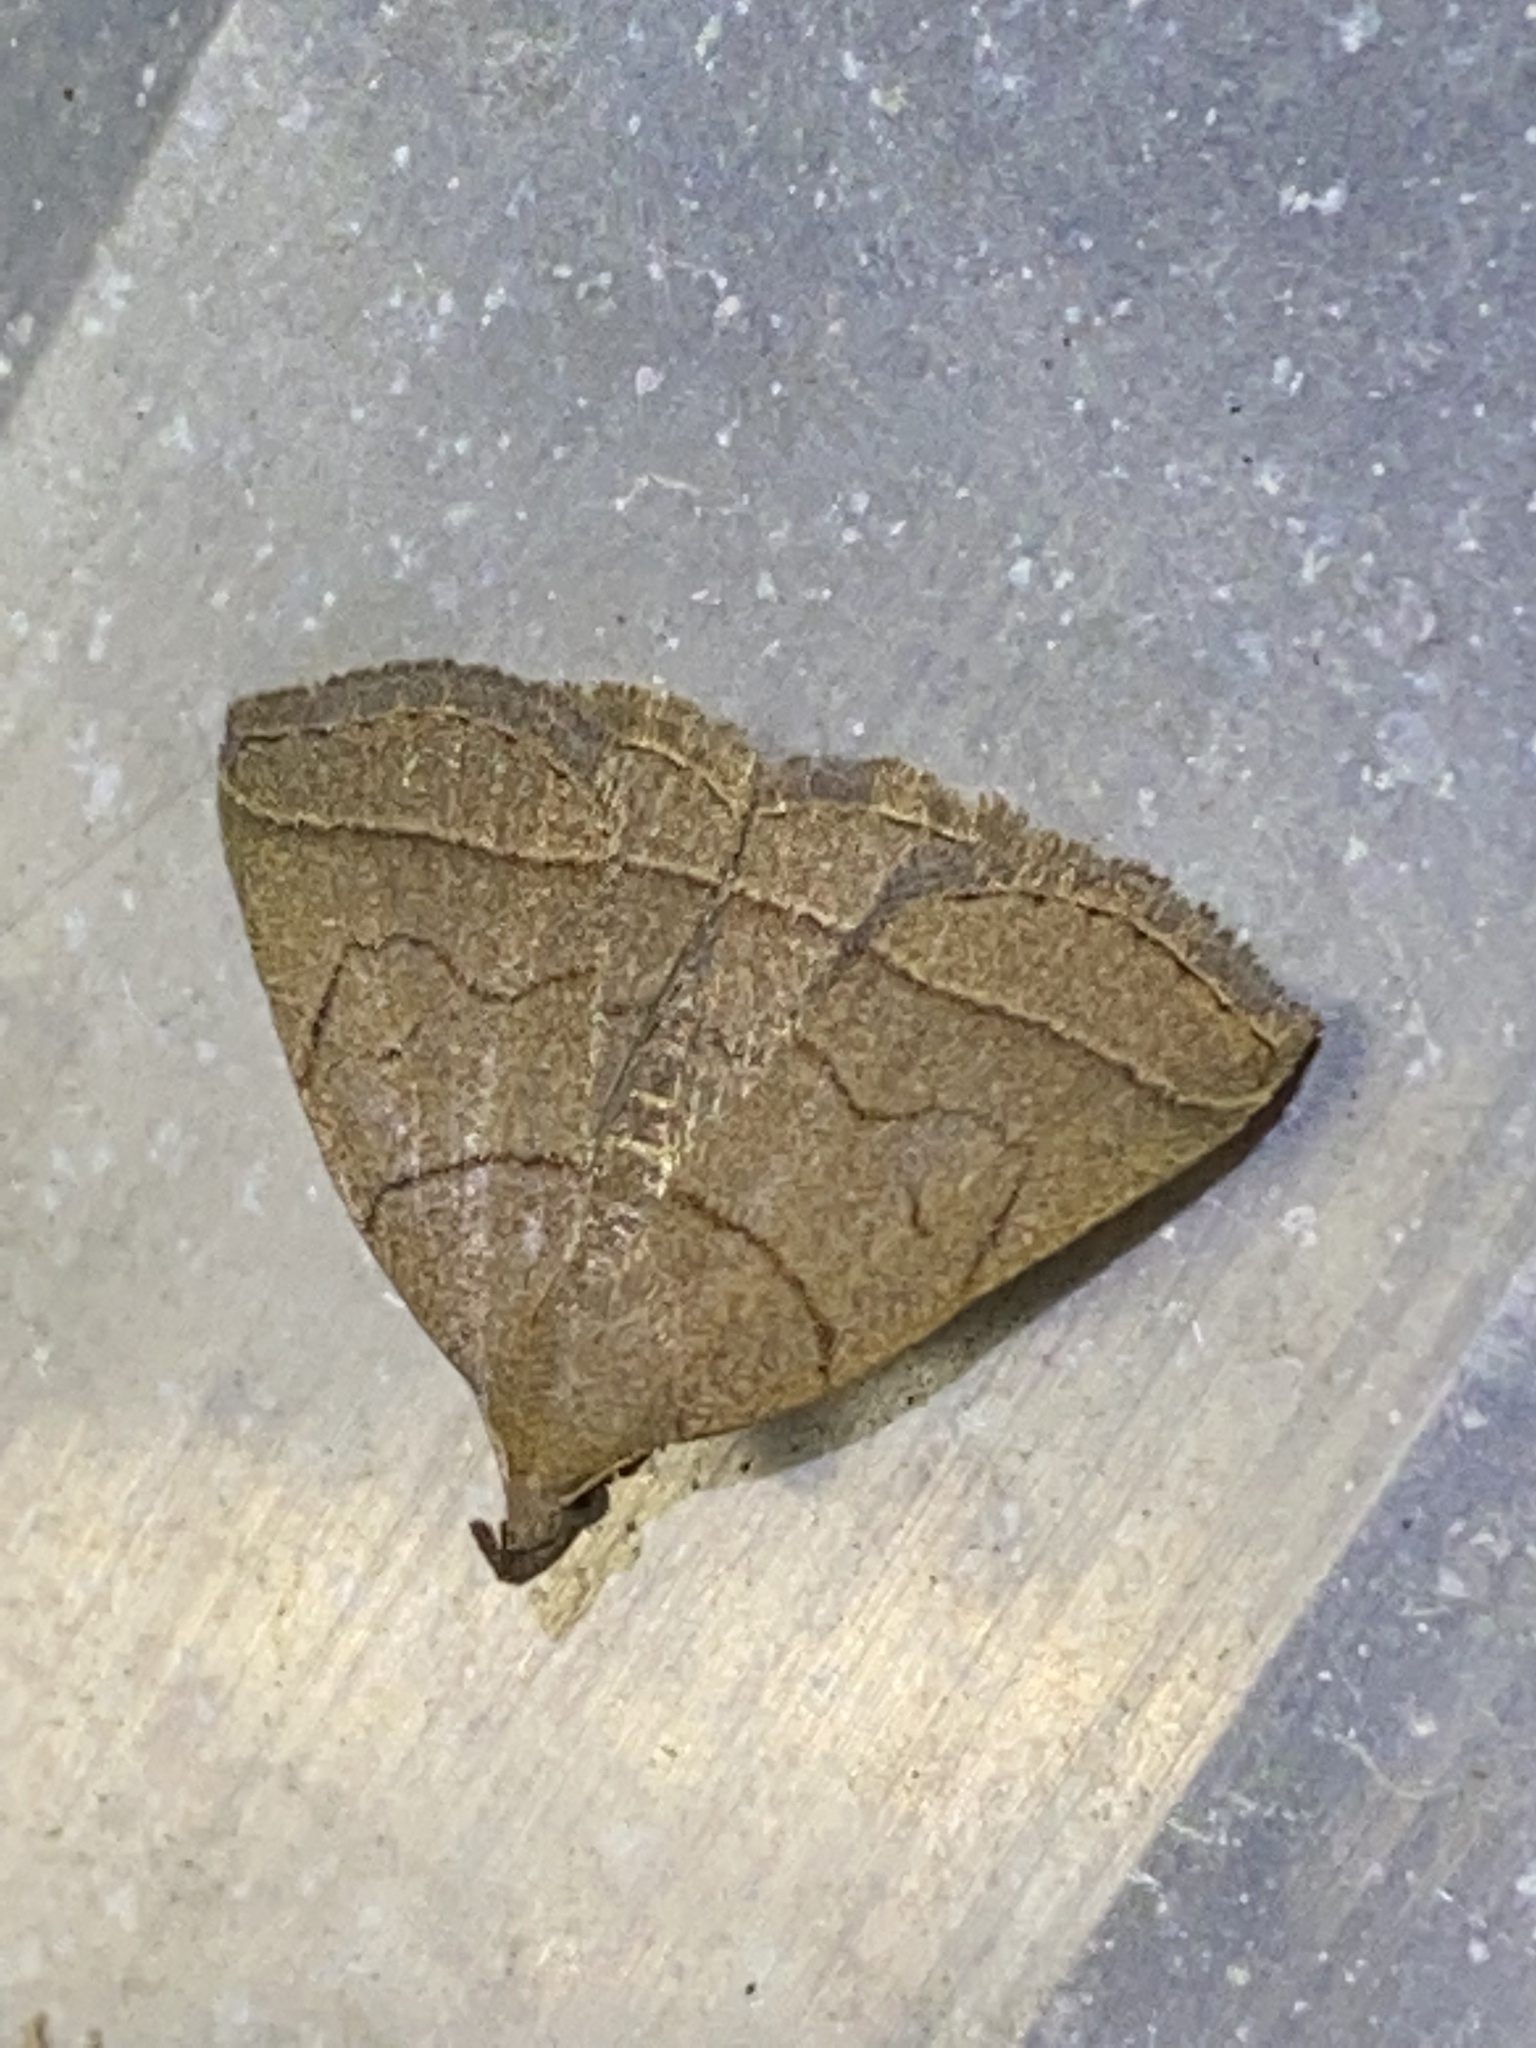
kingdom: Animalia
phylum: Arthropoda
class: Insecta
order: Lepidoptera
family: Erebidae
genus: Zanclognatha
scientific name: Zanclognatha cruralis
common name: Early fan-foot
